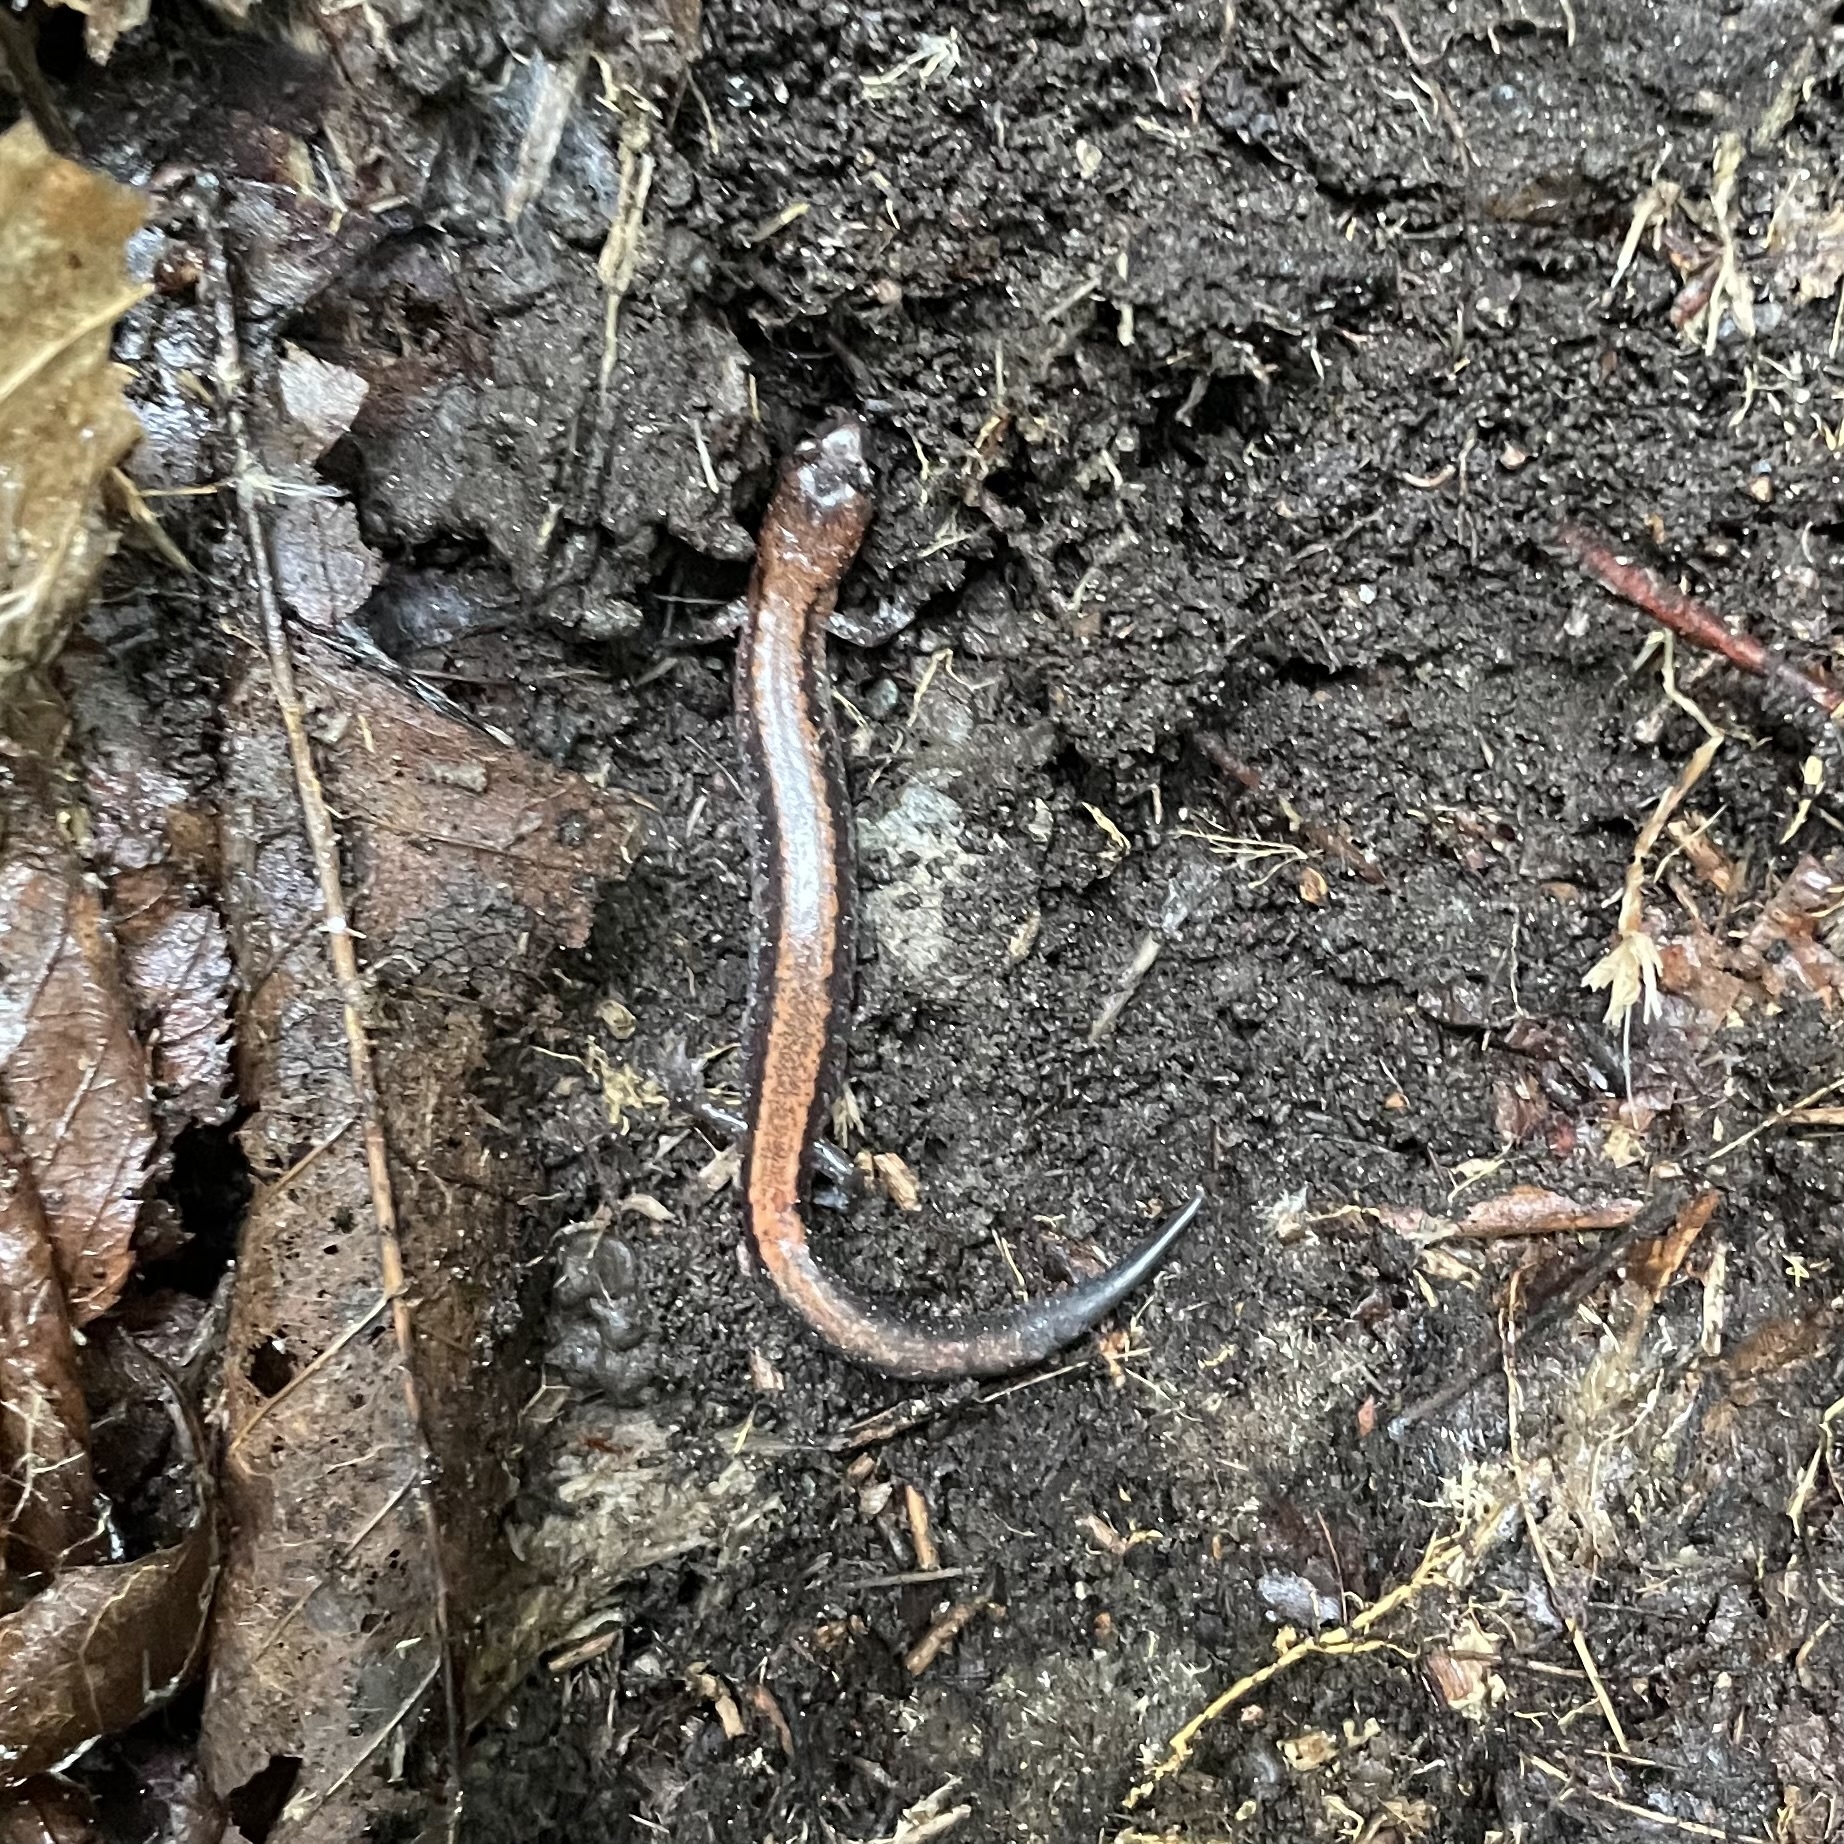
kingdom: Animalia
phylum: Chordata
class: Amphibia
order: Caudata
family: Plethodontidae
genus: Plethodon
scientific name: Plethodon cinereus
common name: Redback salamander
